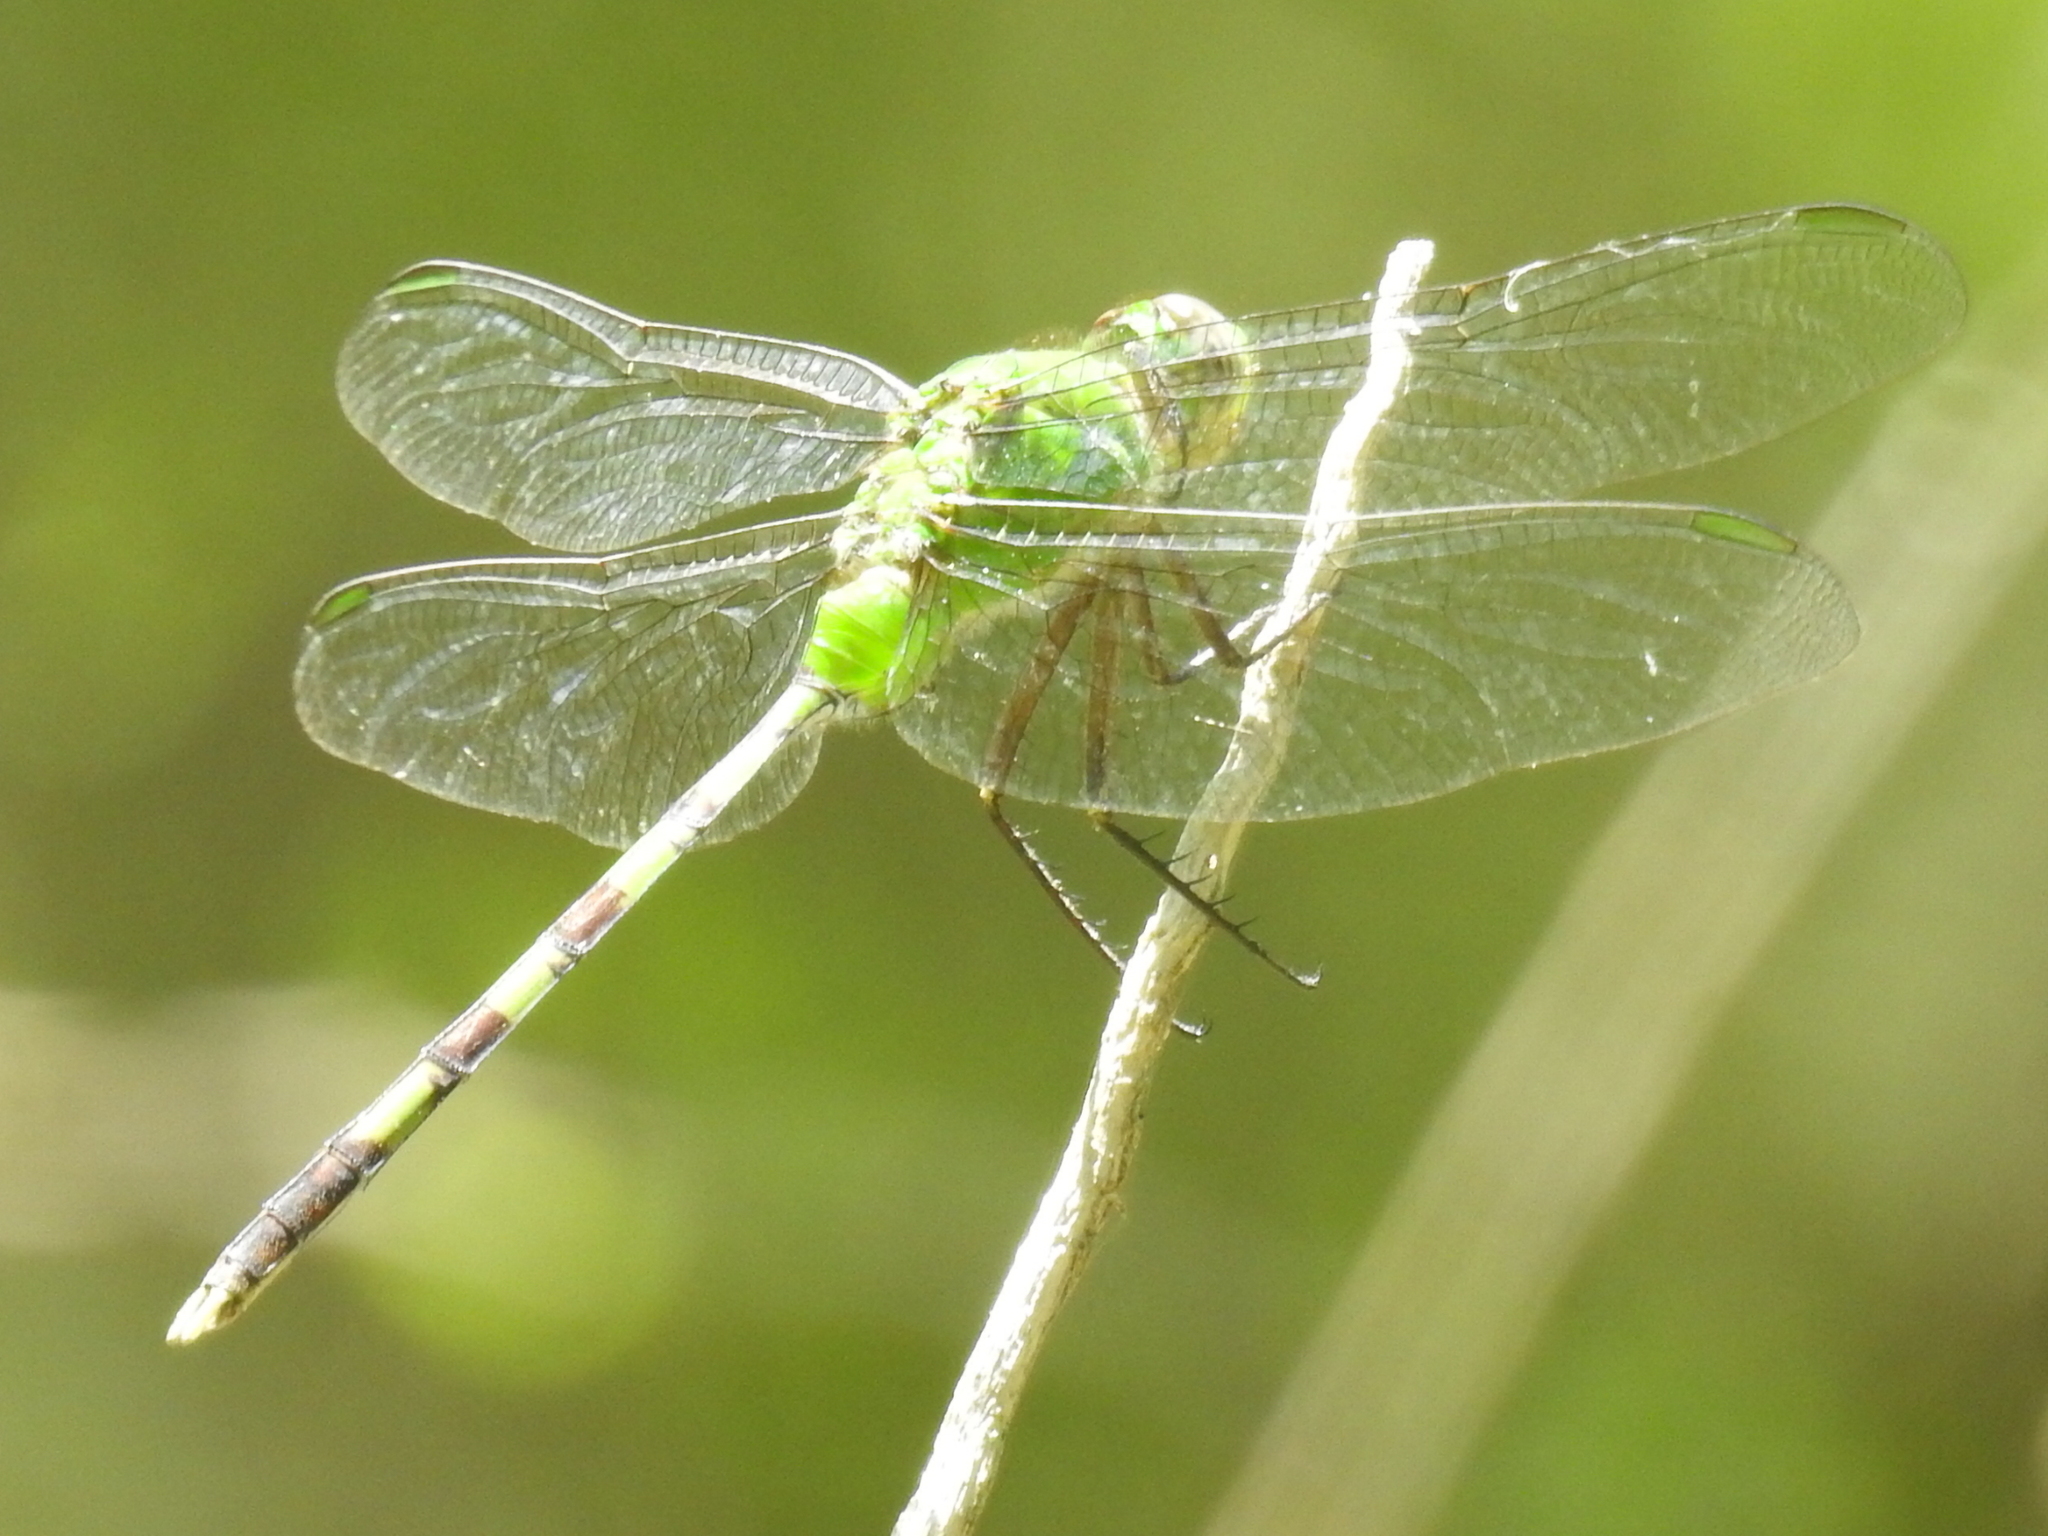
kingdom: Animalia
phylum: Arthropoda
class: Insecta
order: Odonata
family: Libellulidae
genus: Erythemis
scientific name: Erythemis vesiculosa
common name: Great pondhawk
